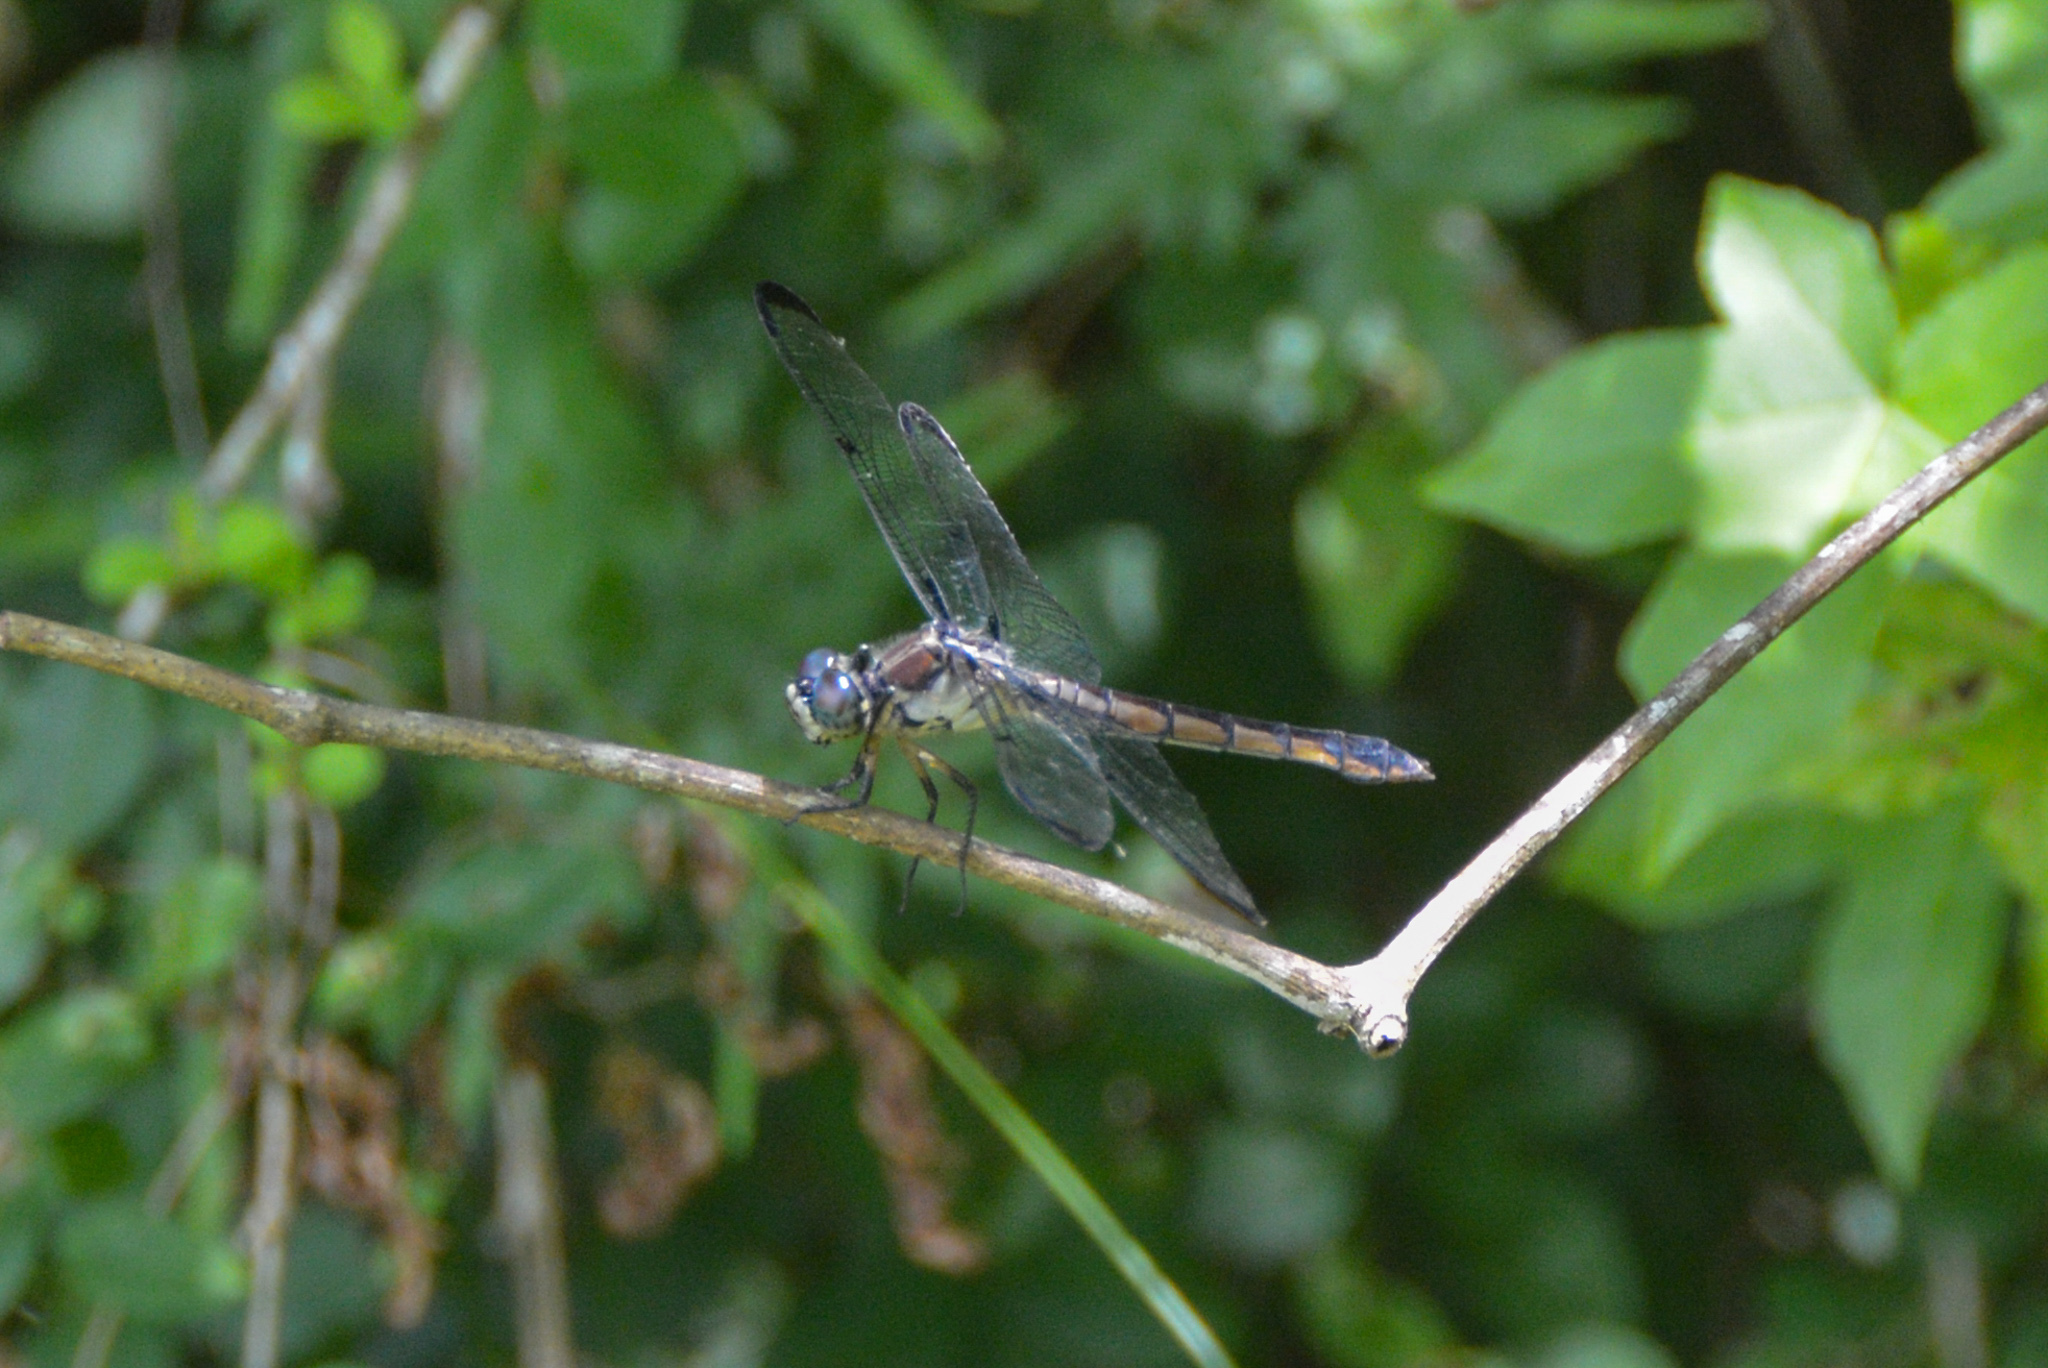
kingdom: Animalia
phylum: Arthropoda
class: Insecta
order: Odonata
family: Libellulidae
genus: Libellula
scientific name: Libellula vibrans
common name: Great blue skimmer
